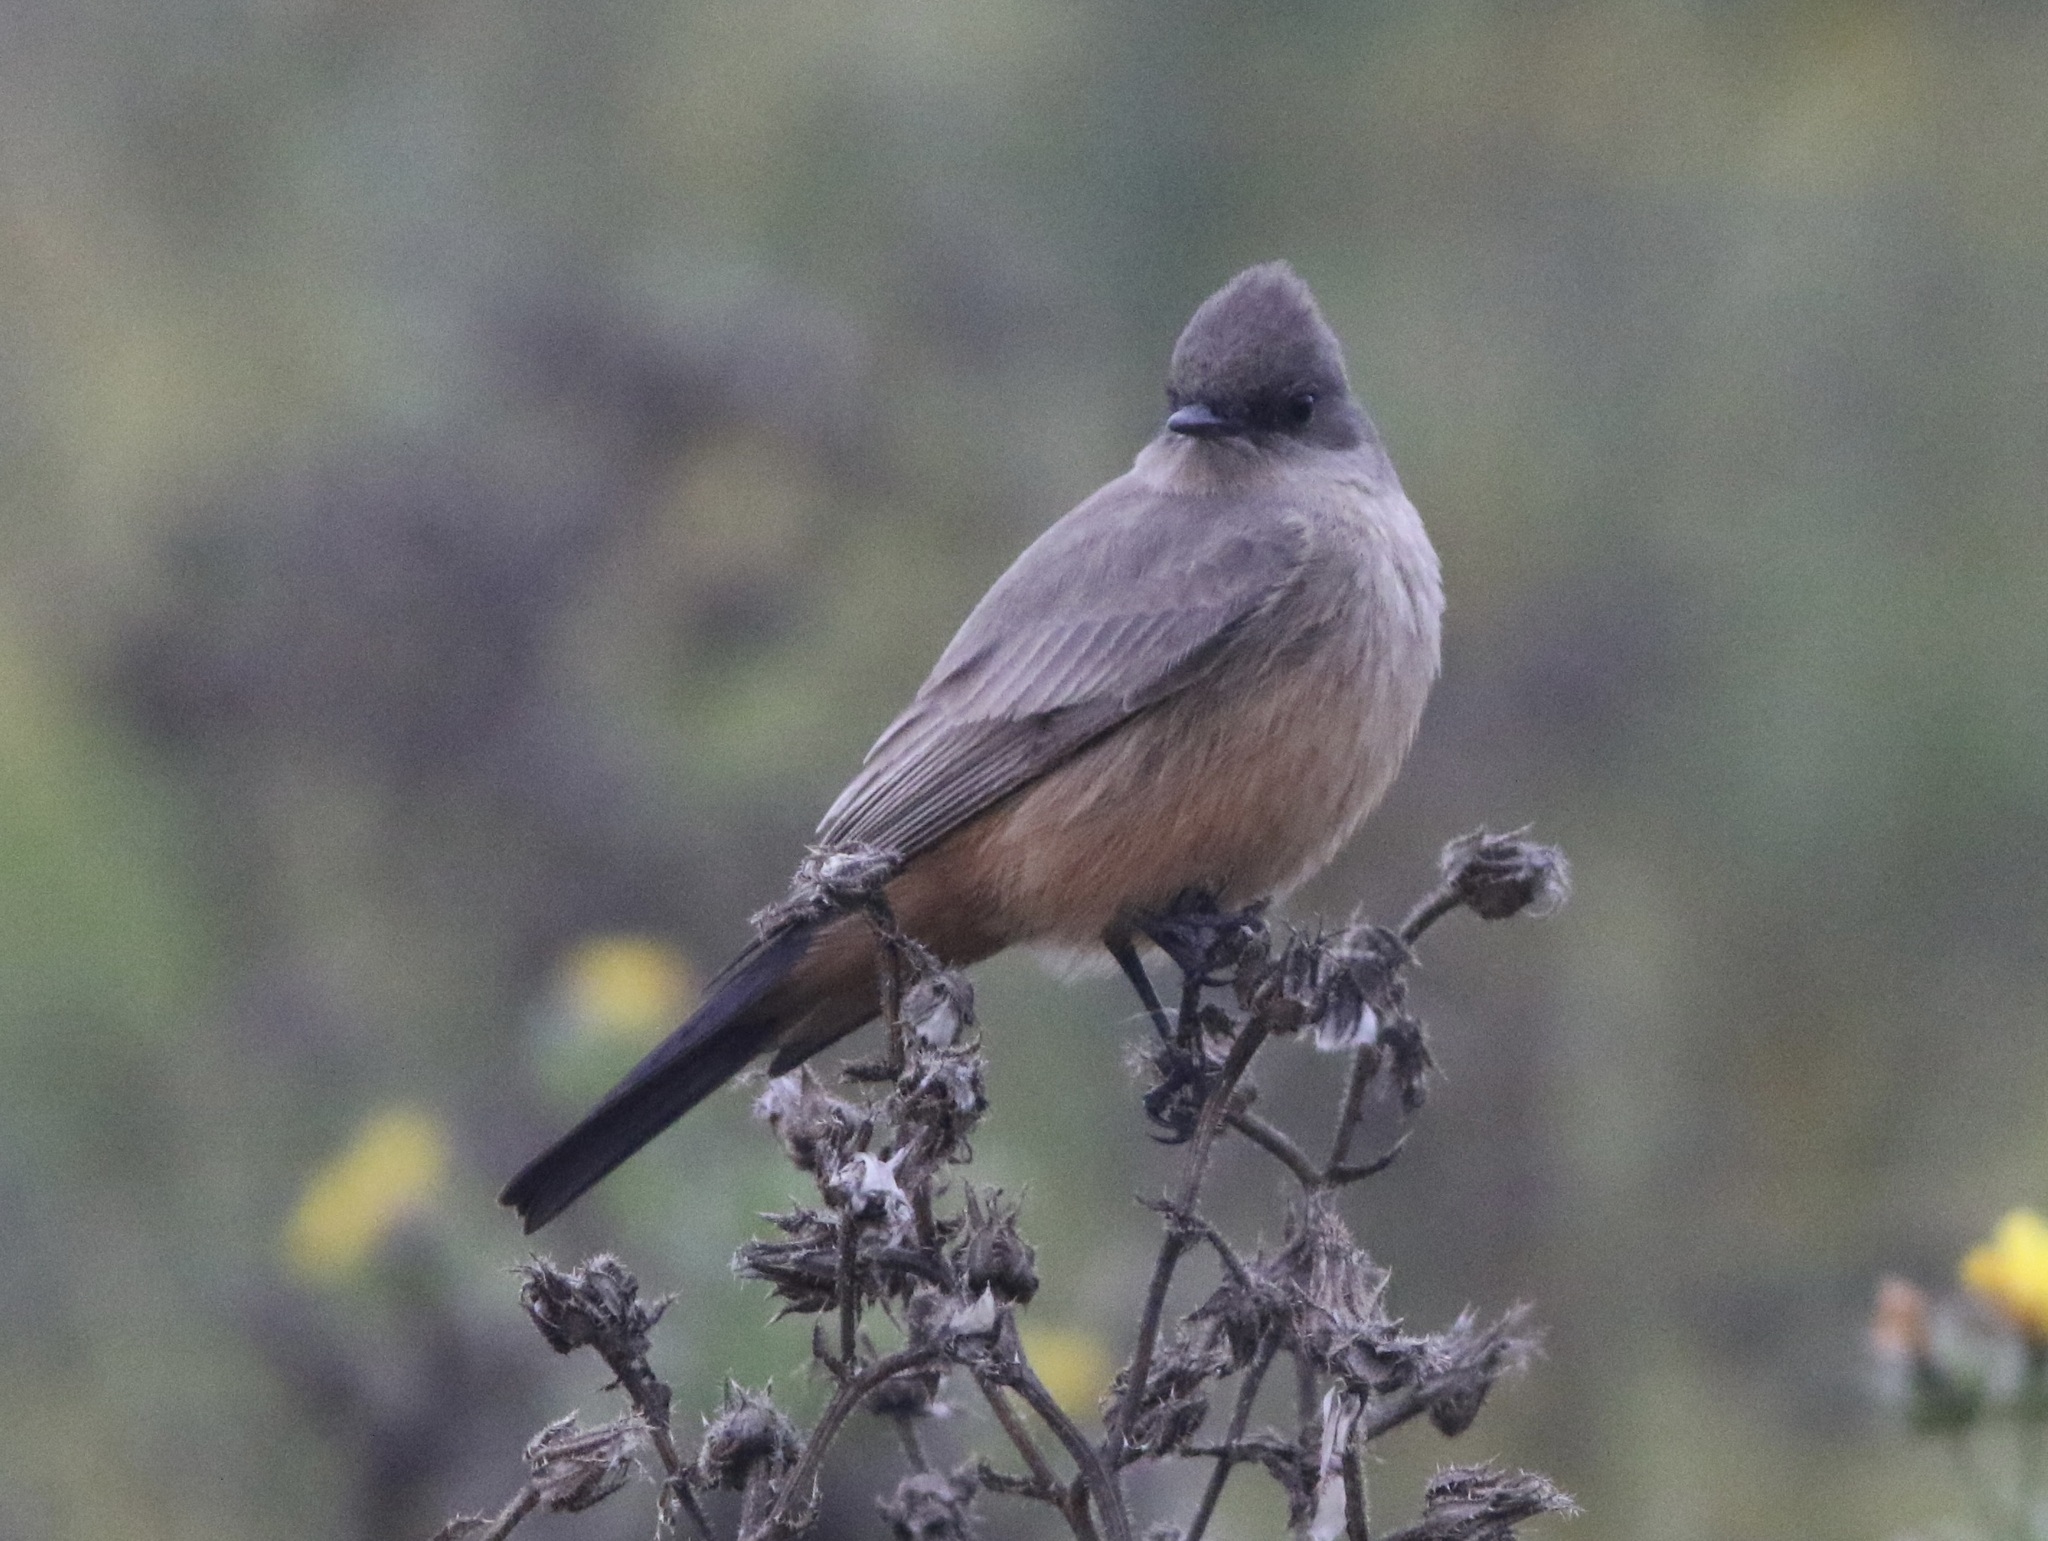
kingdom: Animalia
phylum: Chordata
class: Aves
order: Passeriformes
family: Tyrannidae
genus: Sayornis
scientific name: Sayornis saya
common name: Say's phoebe
